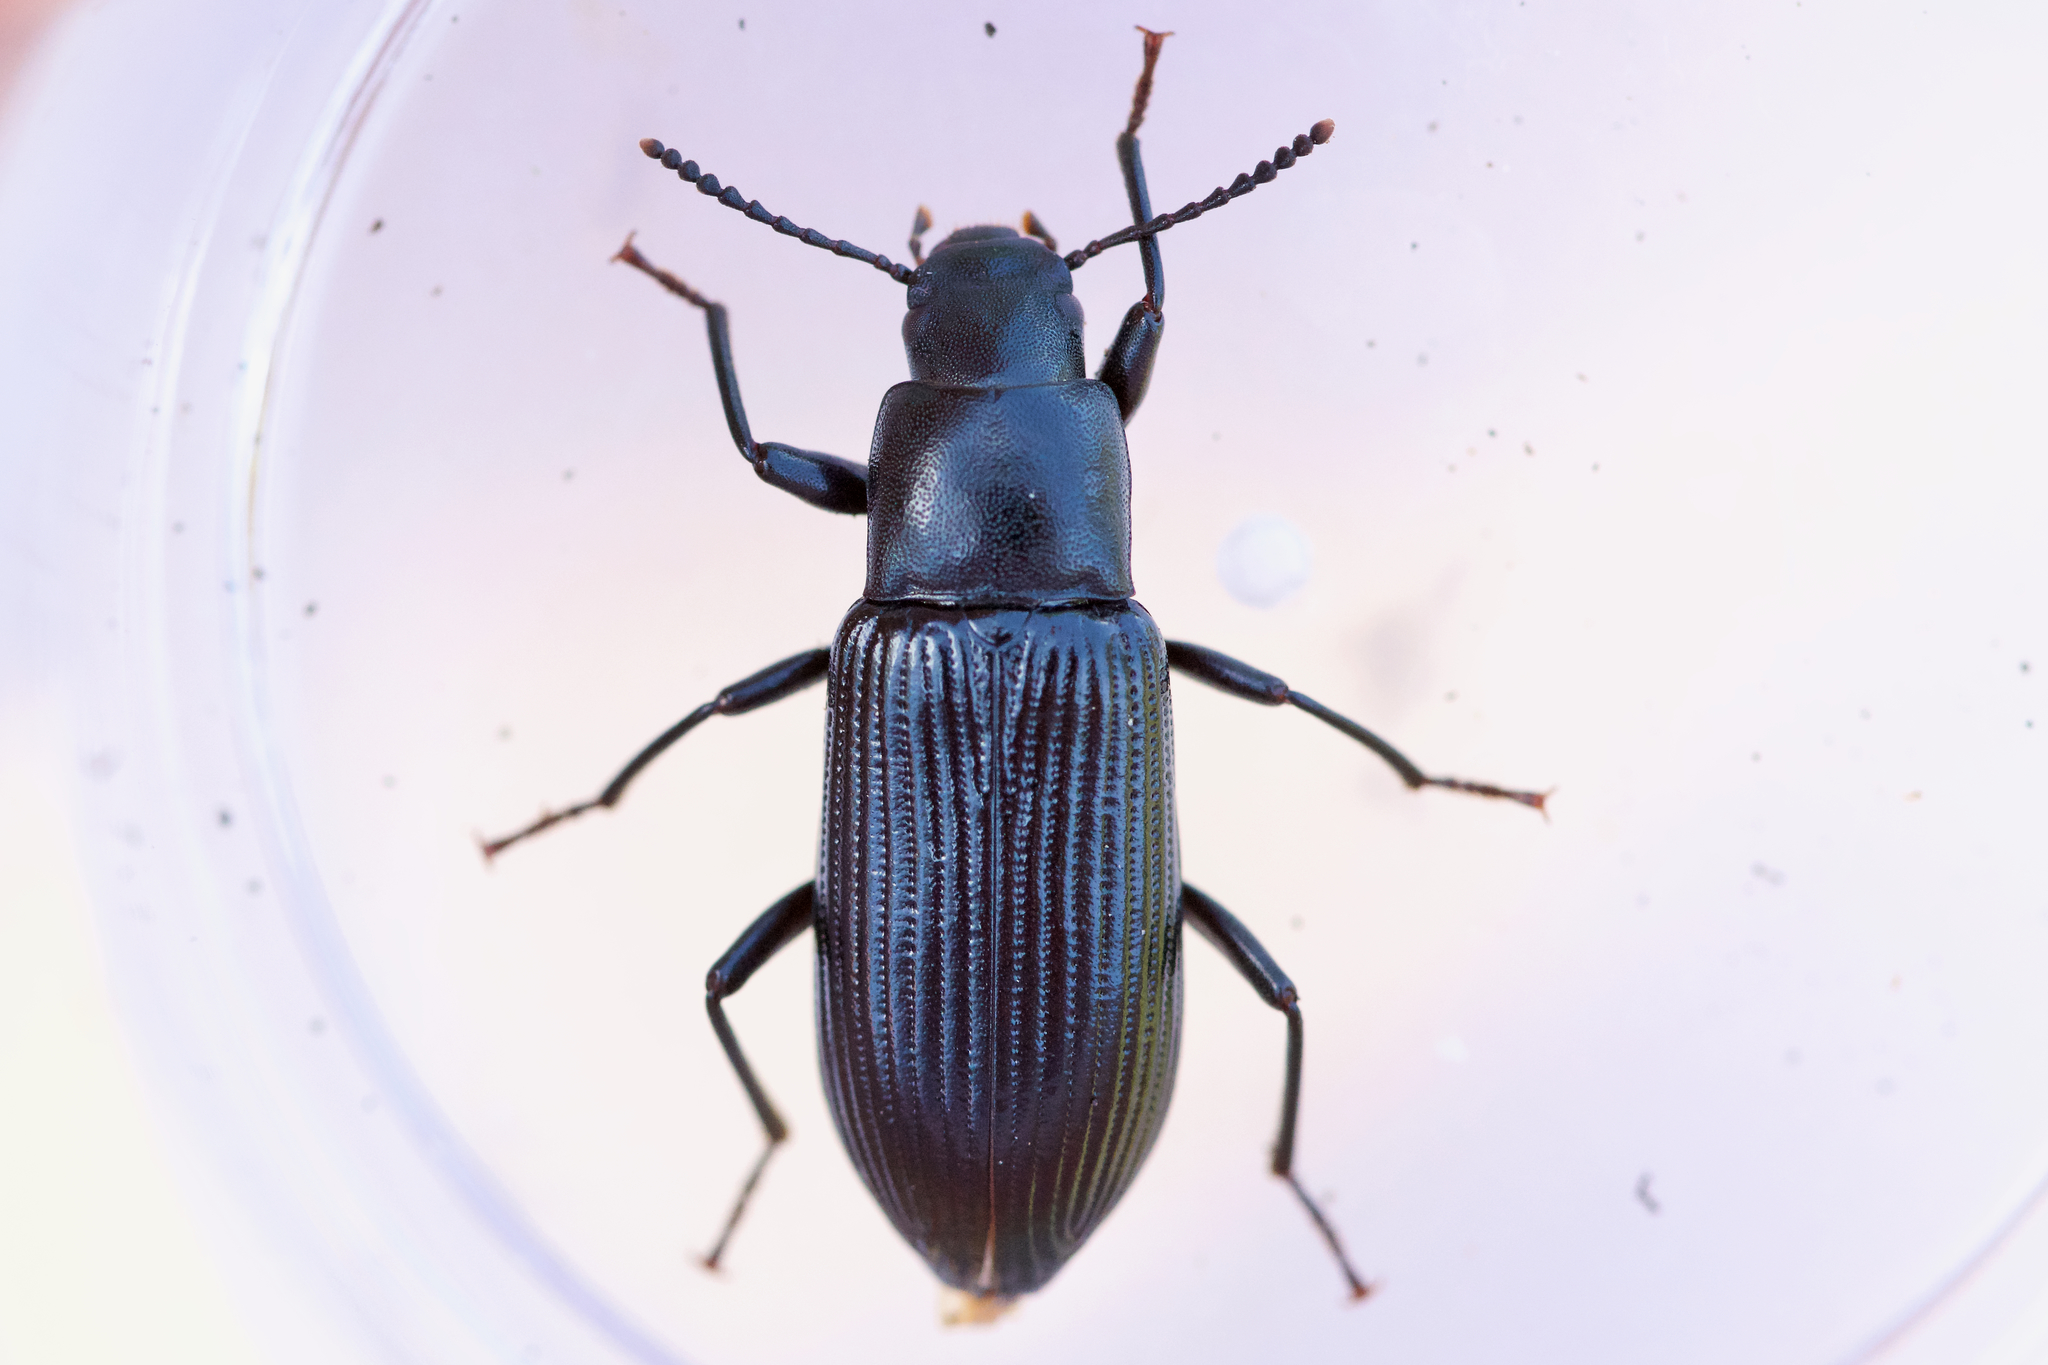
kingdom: Animalia
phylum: Arthropoda
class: Insecta
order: Coleoptera
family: Tenebrionidae
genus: Xylopinus
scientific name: Xylopinus saperdoides
